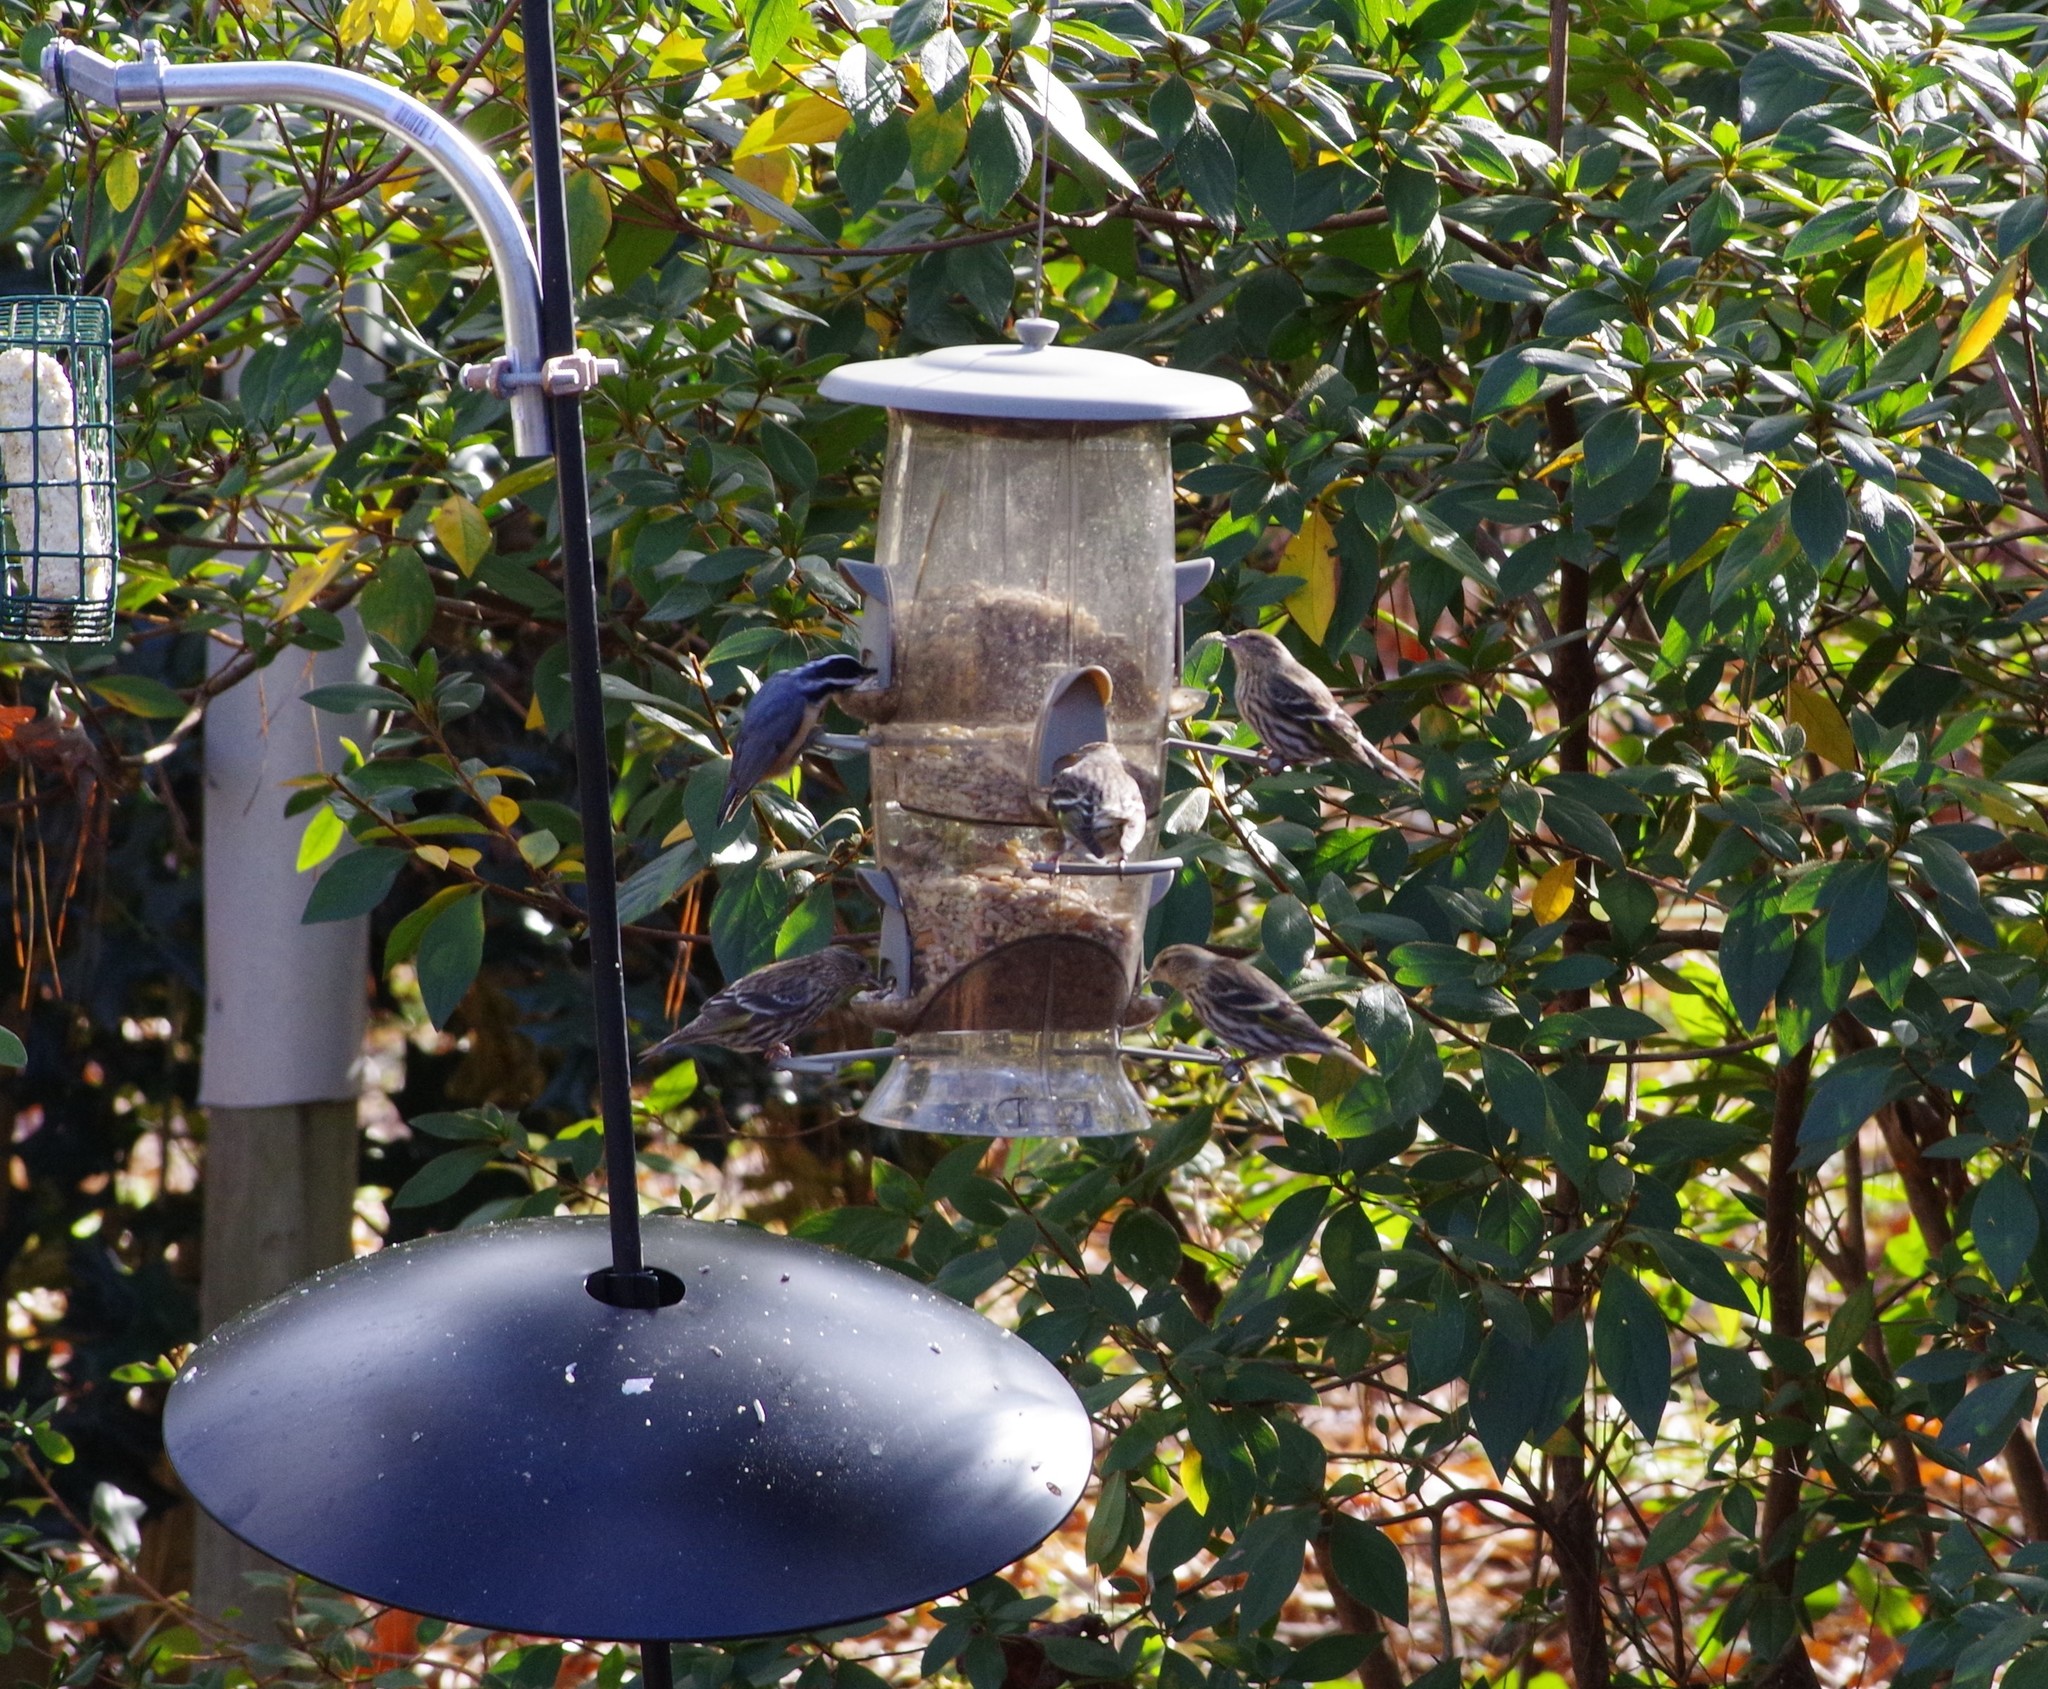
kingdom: Animalia
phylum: Chordata
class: Aves
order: Passeriformes
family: Fringillidae
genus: Spinus
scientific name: Spinus pinus
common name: Pine siskin
